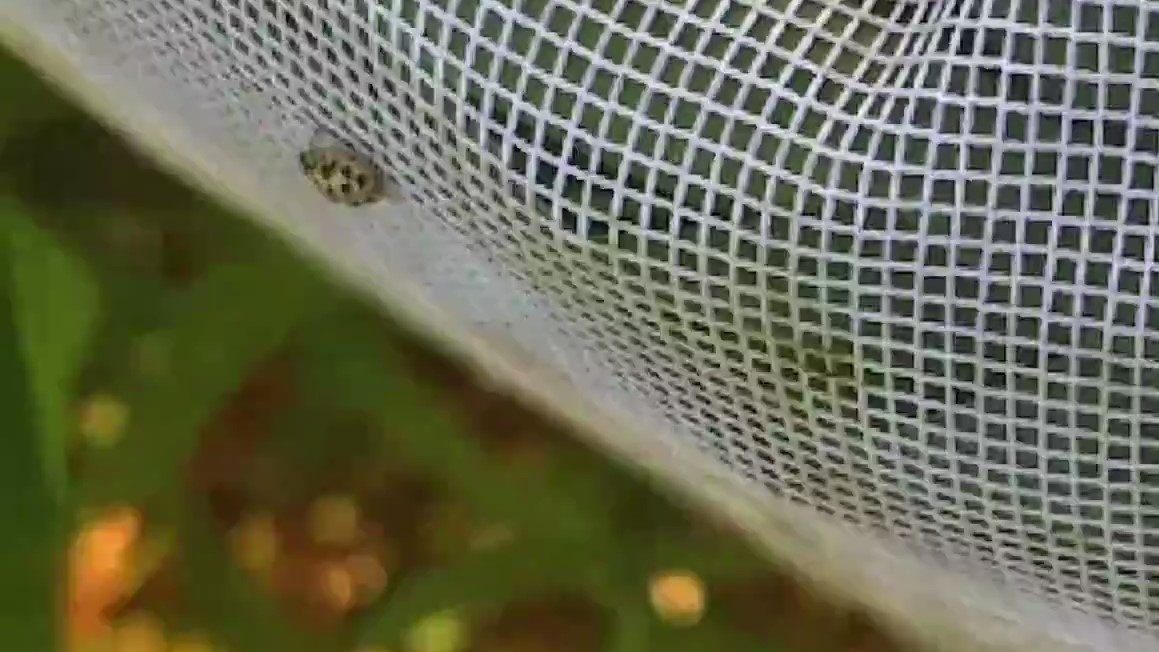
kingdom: Animalia
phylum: Arthropoda
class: Insecta
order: Coleoptera
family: Coccinellidae
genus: Anisosticta
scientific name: Anisosticta bitriangularis
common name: Marsh lady beetle
